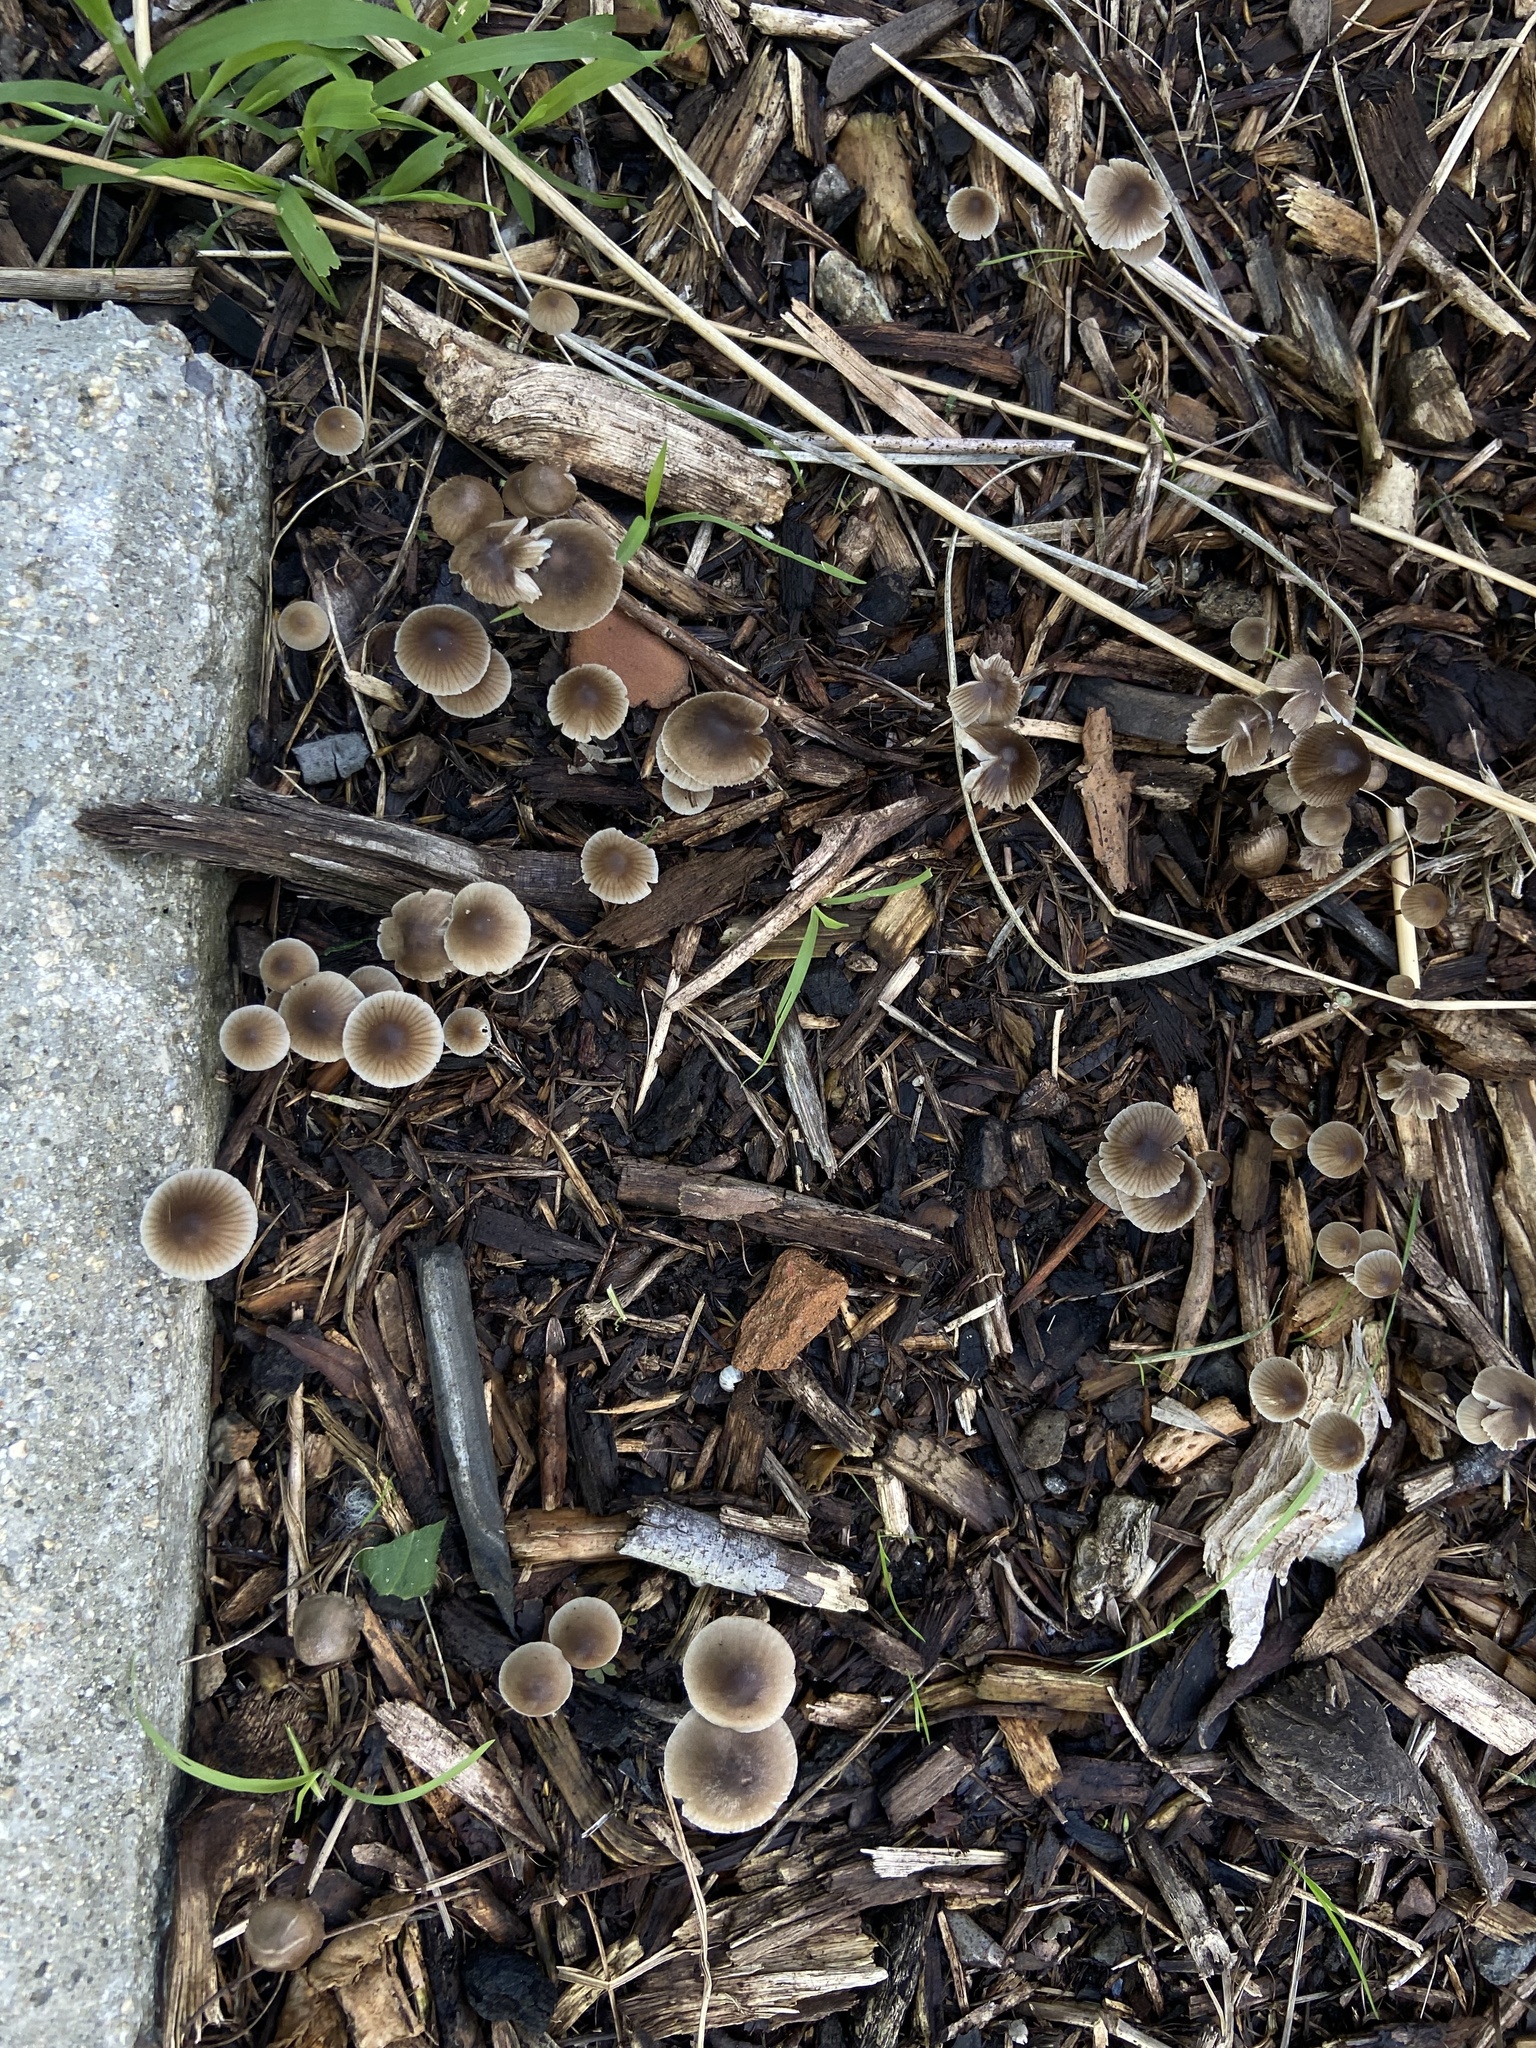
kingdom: Fungi
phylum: Basidiomycota
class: Agaricomycetes
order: Agaricales
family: Mycenaceae
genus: Mycena
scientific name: Mycena leptocephala
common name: Nitrous bonnet
